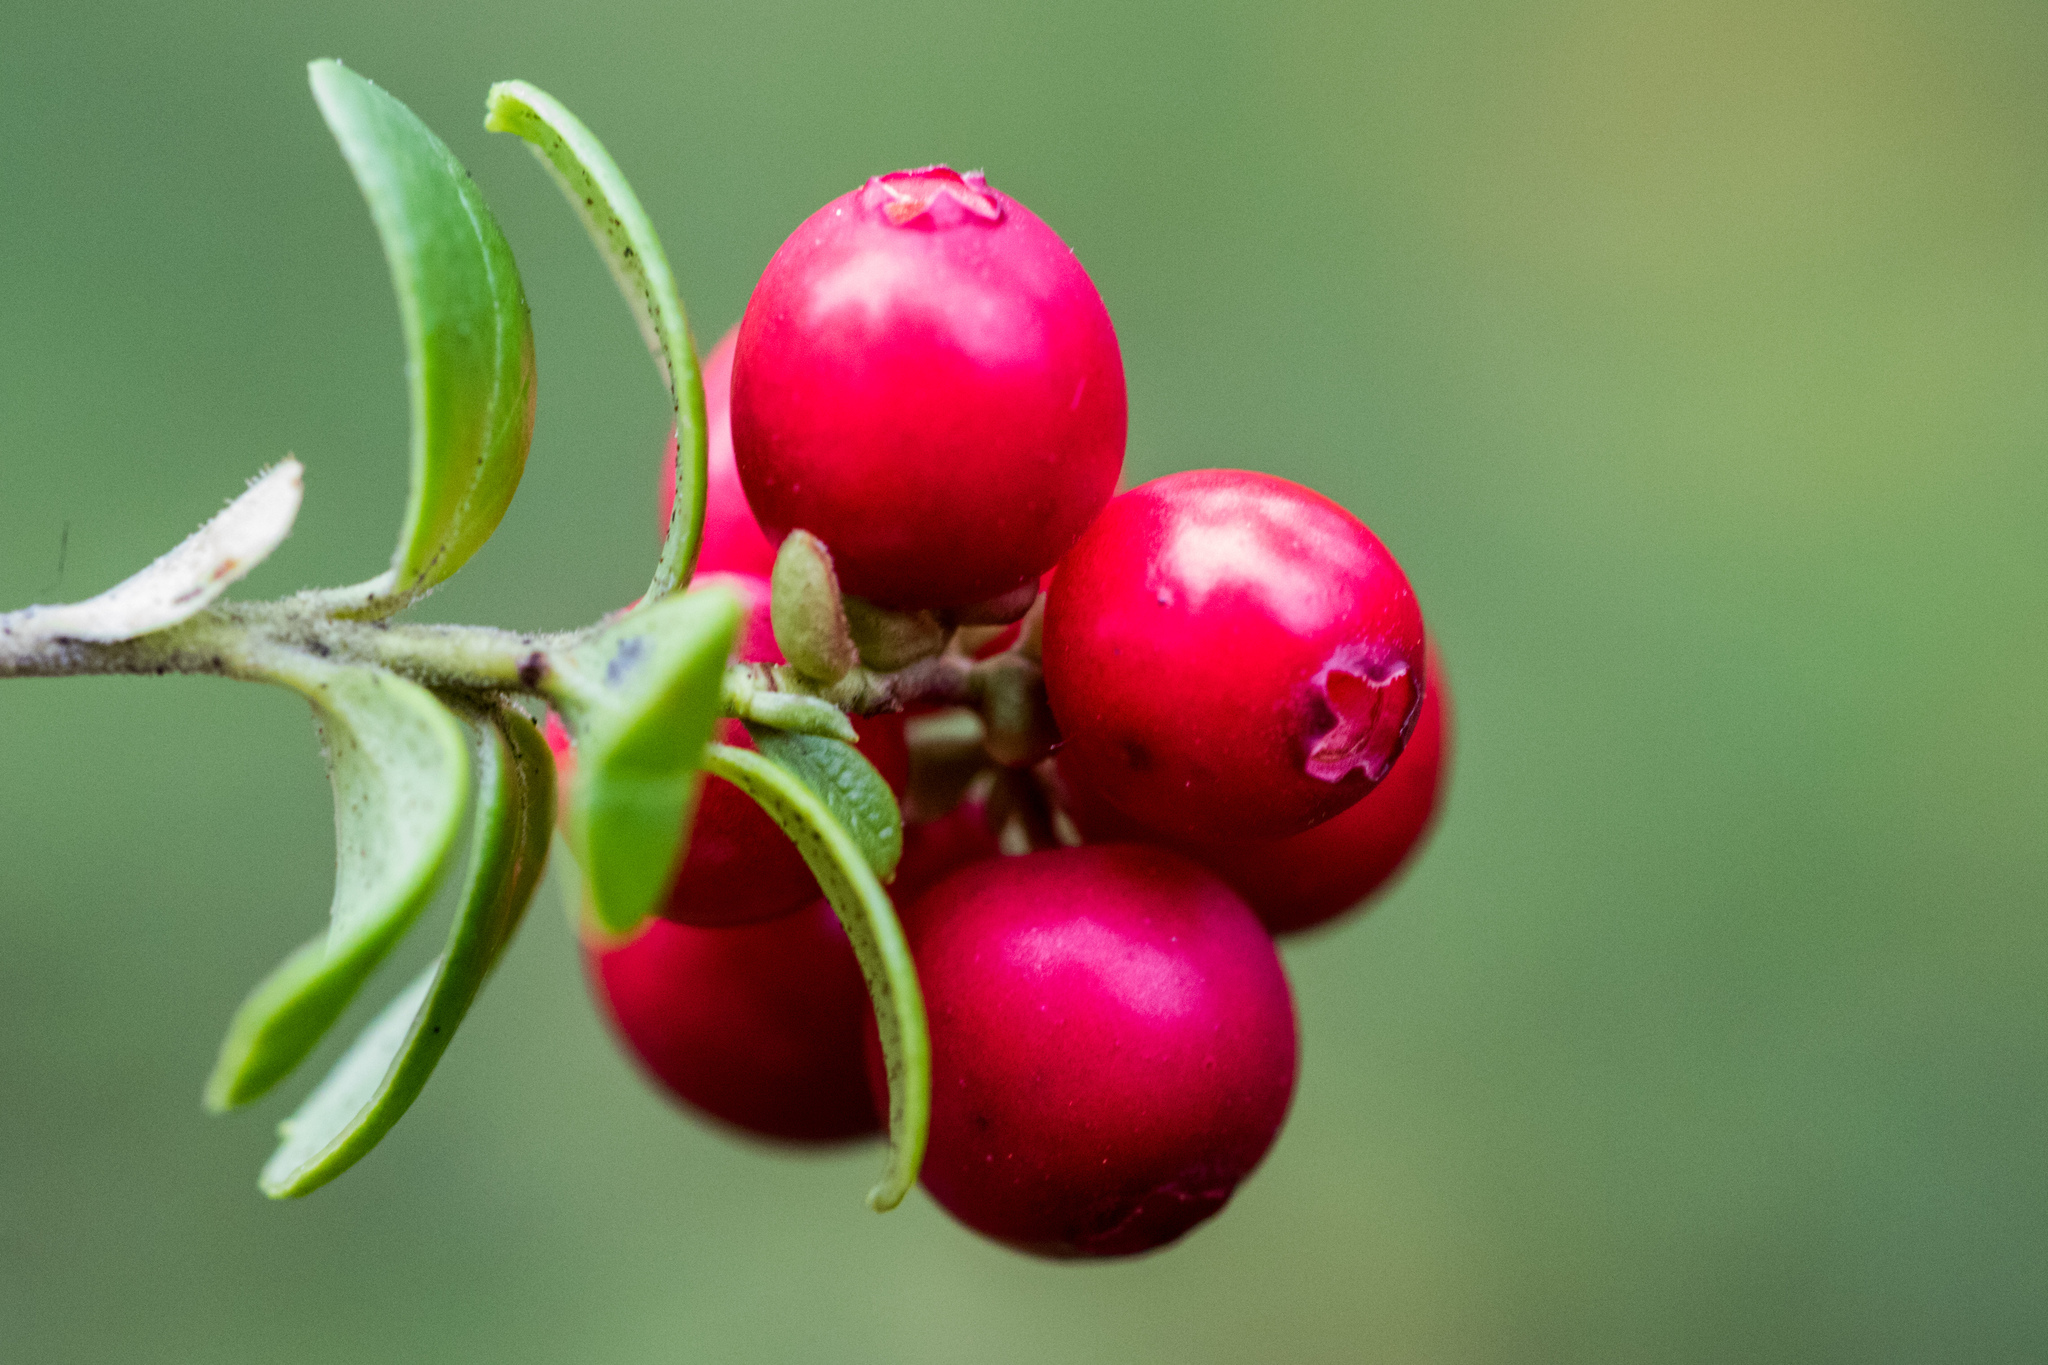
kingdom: Plantae
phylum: Tracheophyta
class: Magnoliopsida
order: Ericales
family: Ericaceae
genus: Vaccinium
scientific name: Vaccinium vitis-idaea
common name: Cowberry
